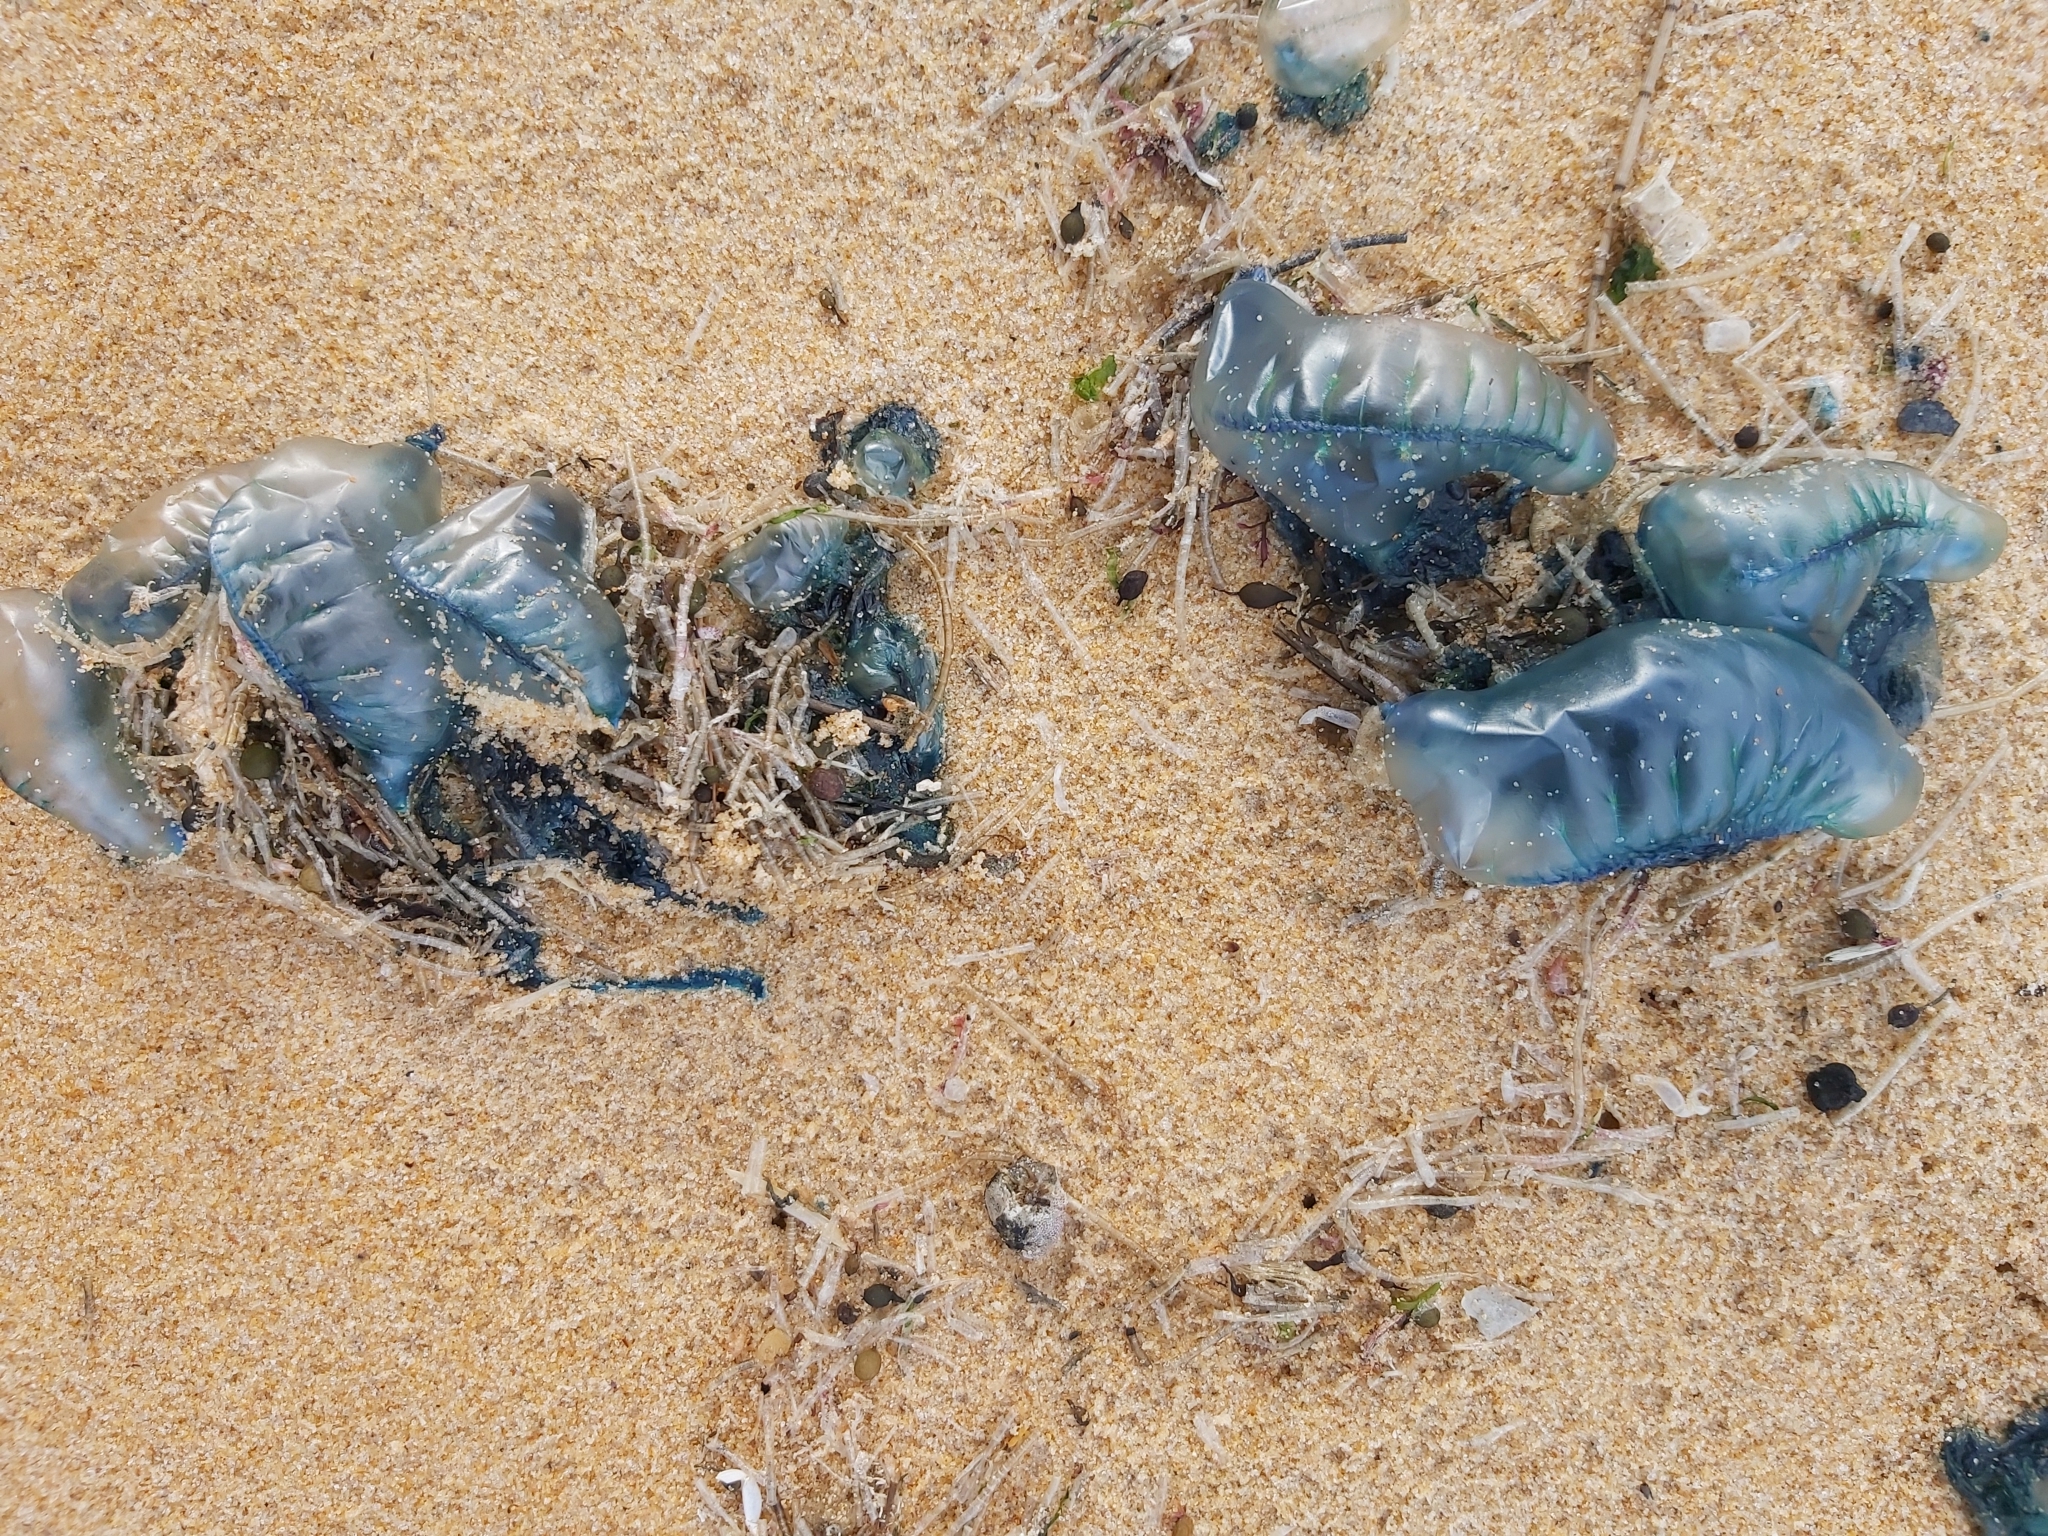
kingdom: Animalia
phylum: Cnidaria
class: Hydrozoa
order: Siphonophorae
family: Physaliidae
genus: Physalia
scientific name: Physalia physalis
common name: Portuguese man-of-war
